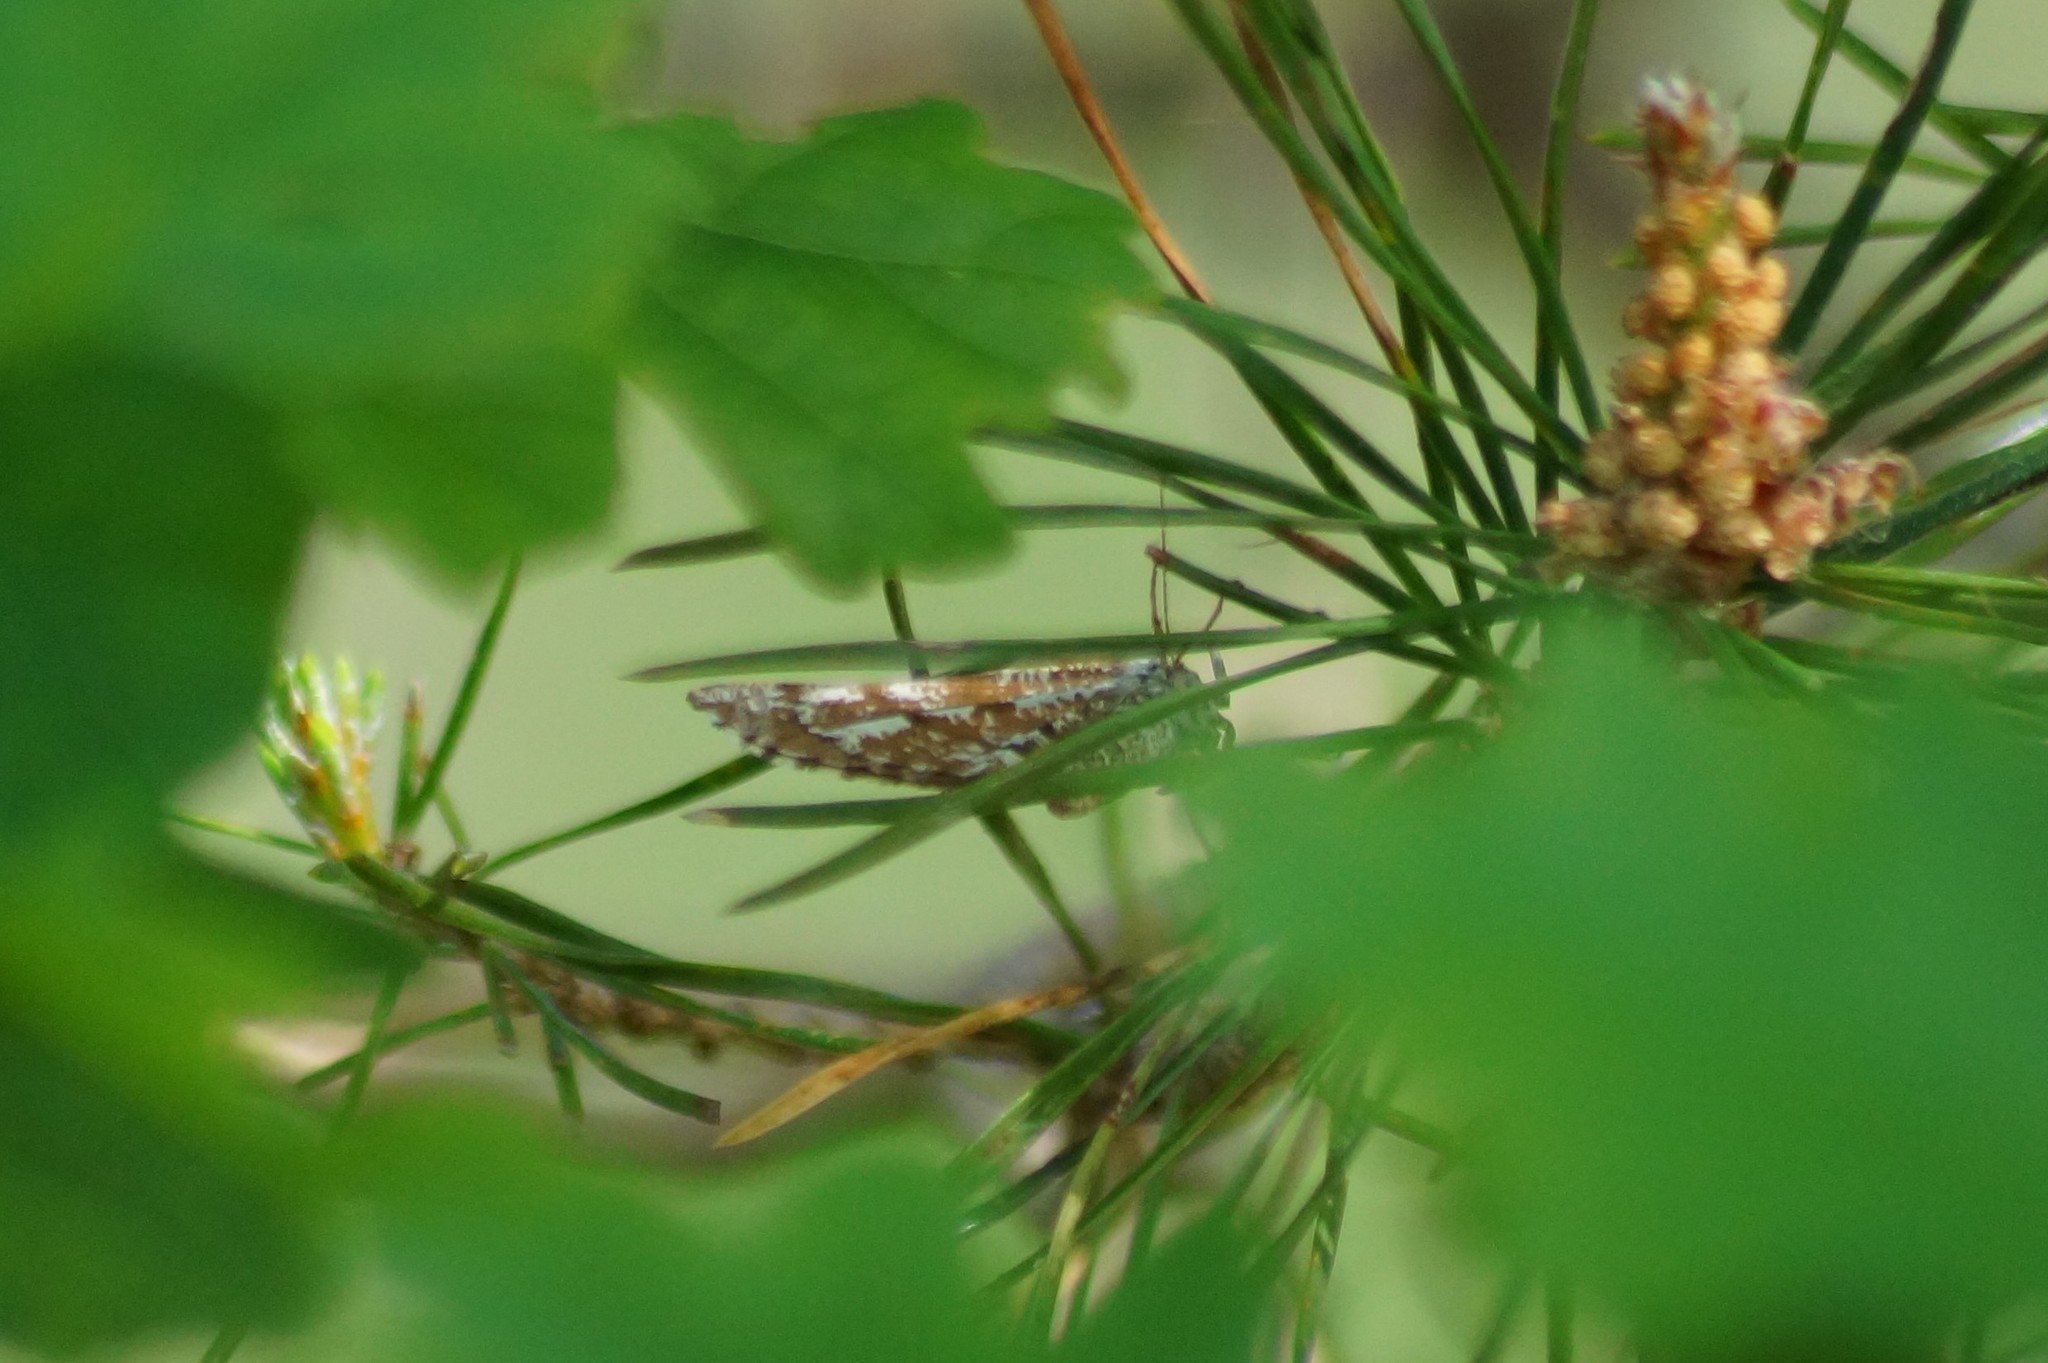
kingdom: Animalia
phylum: Arthropoda
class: Insecta
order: Lepidoptera
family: Geometridae
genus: Bupalus
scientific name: Bupalus piniaria
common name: Bordered white
